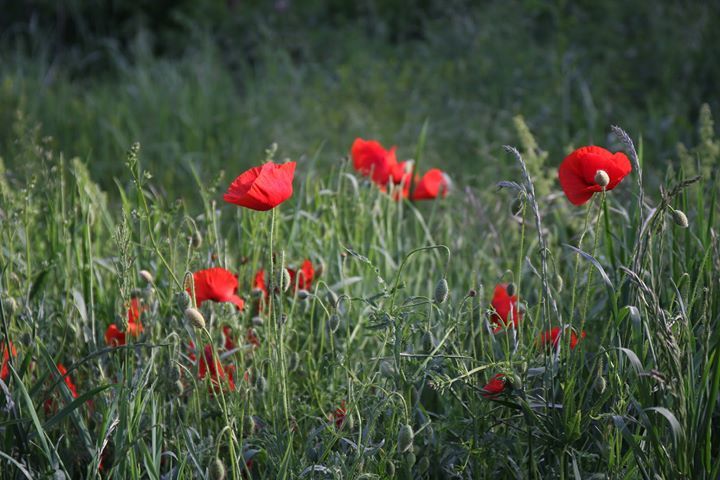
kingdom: Plantae
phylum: Tracheophyta
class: Magnoliopsida
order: Ranunculales
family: Papaveraceae
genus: Papaver
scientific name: Papaver rhoeas
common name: Corn poppy
